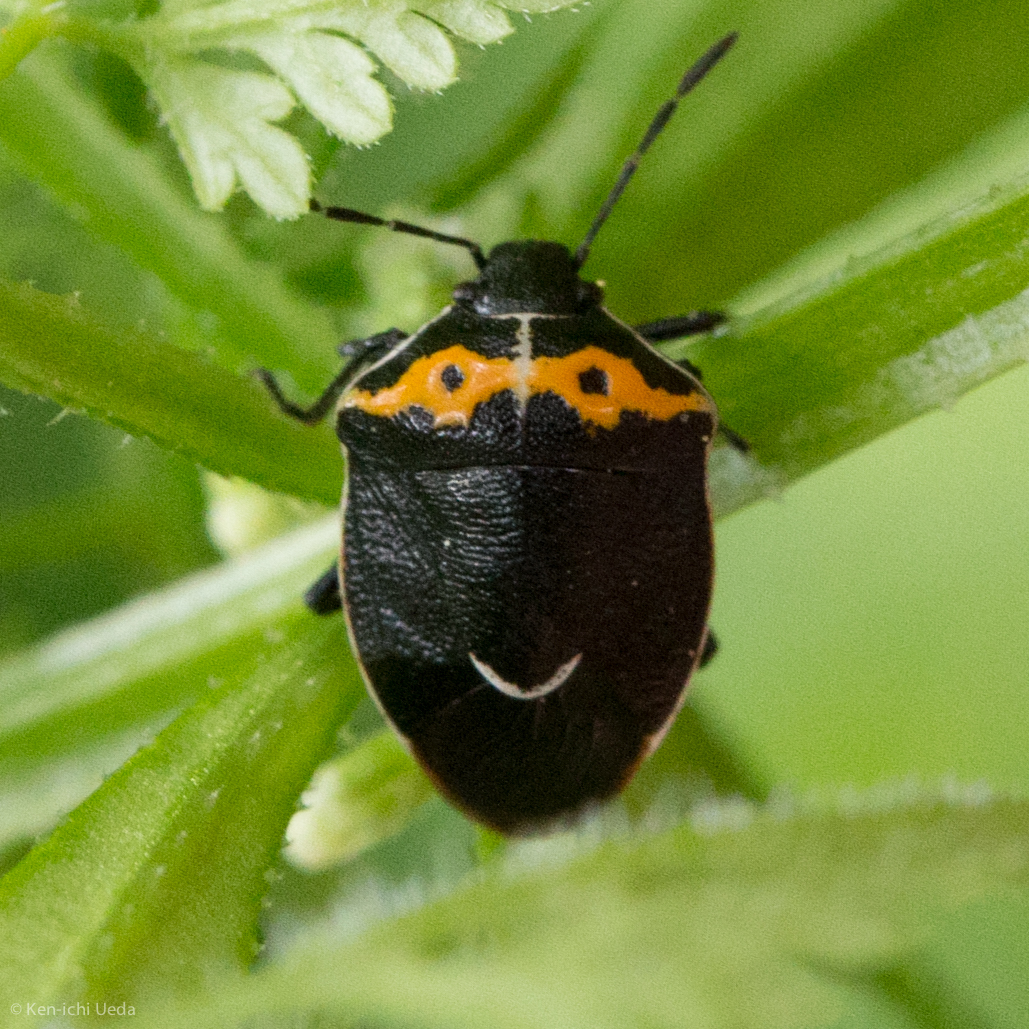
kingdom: Animalia
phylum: Arthropoda
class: Insecta
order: Hemiptera
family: Pentatomidae
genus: Cosmopepla
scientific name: Cosmopepla conspicillaris
